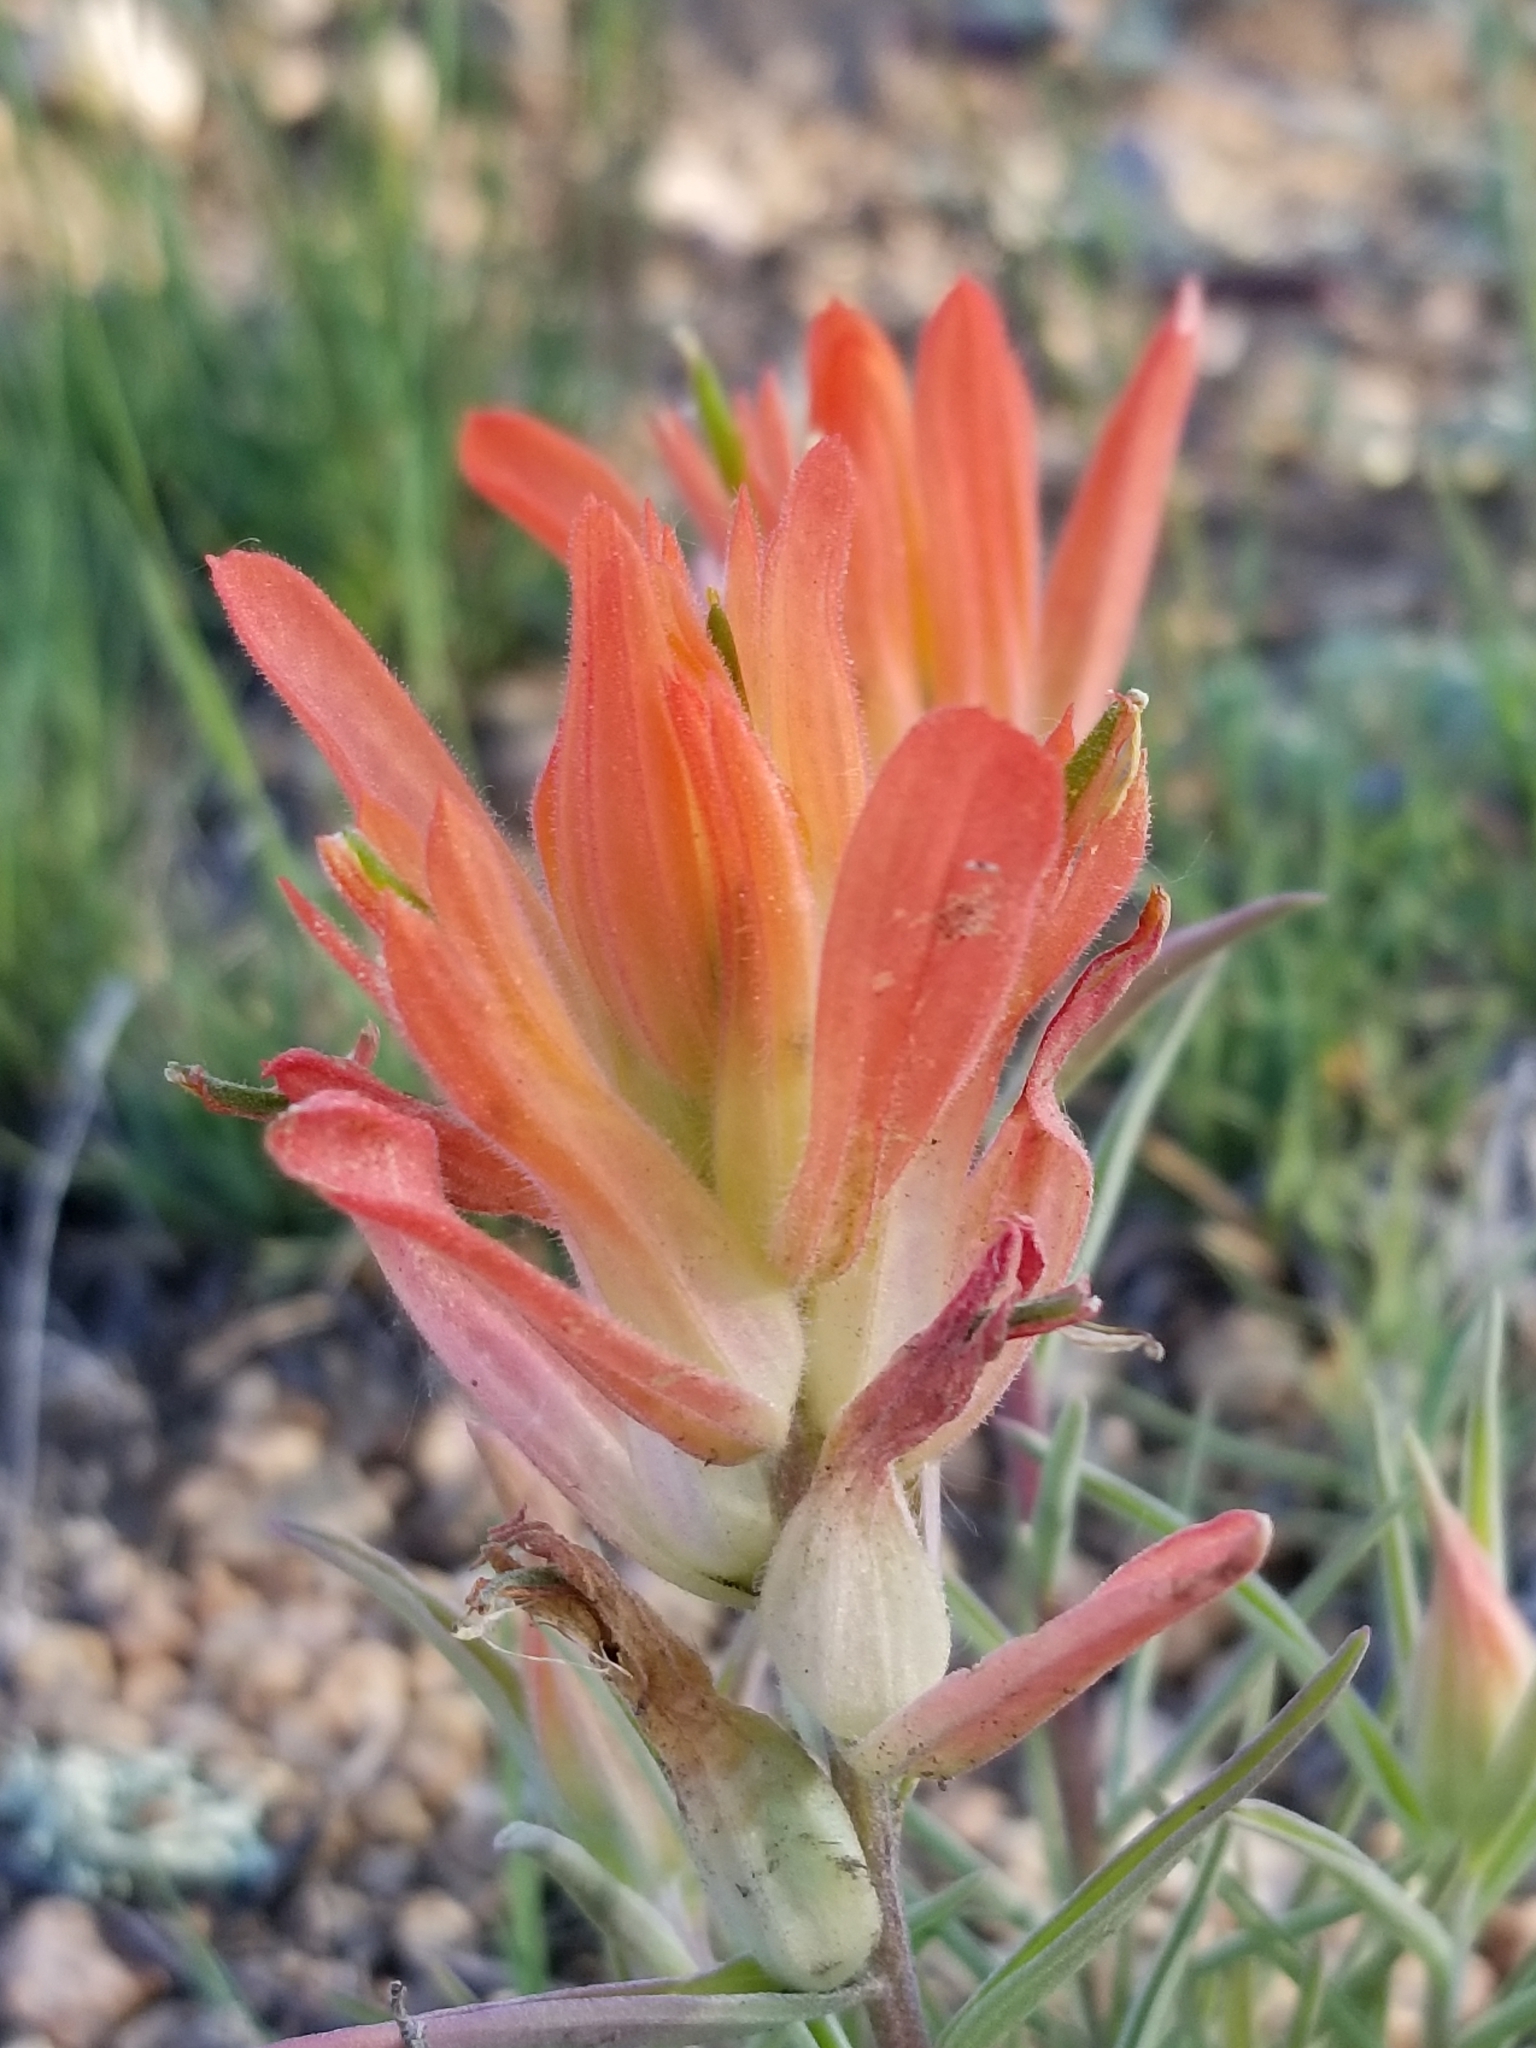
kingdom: Plantae
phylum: Tracheophyta
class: Magnoliopsida
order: Lamiales
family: Orobanchaceae
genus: Castilleja
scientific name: Castilleja integra
